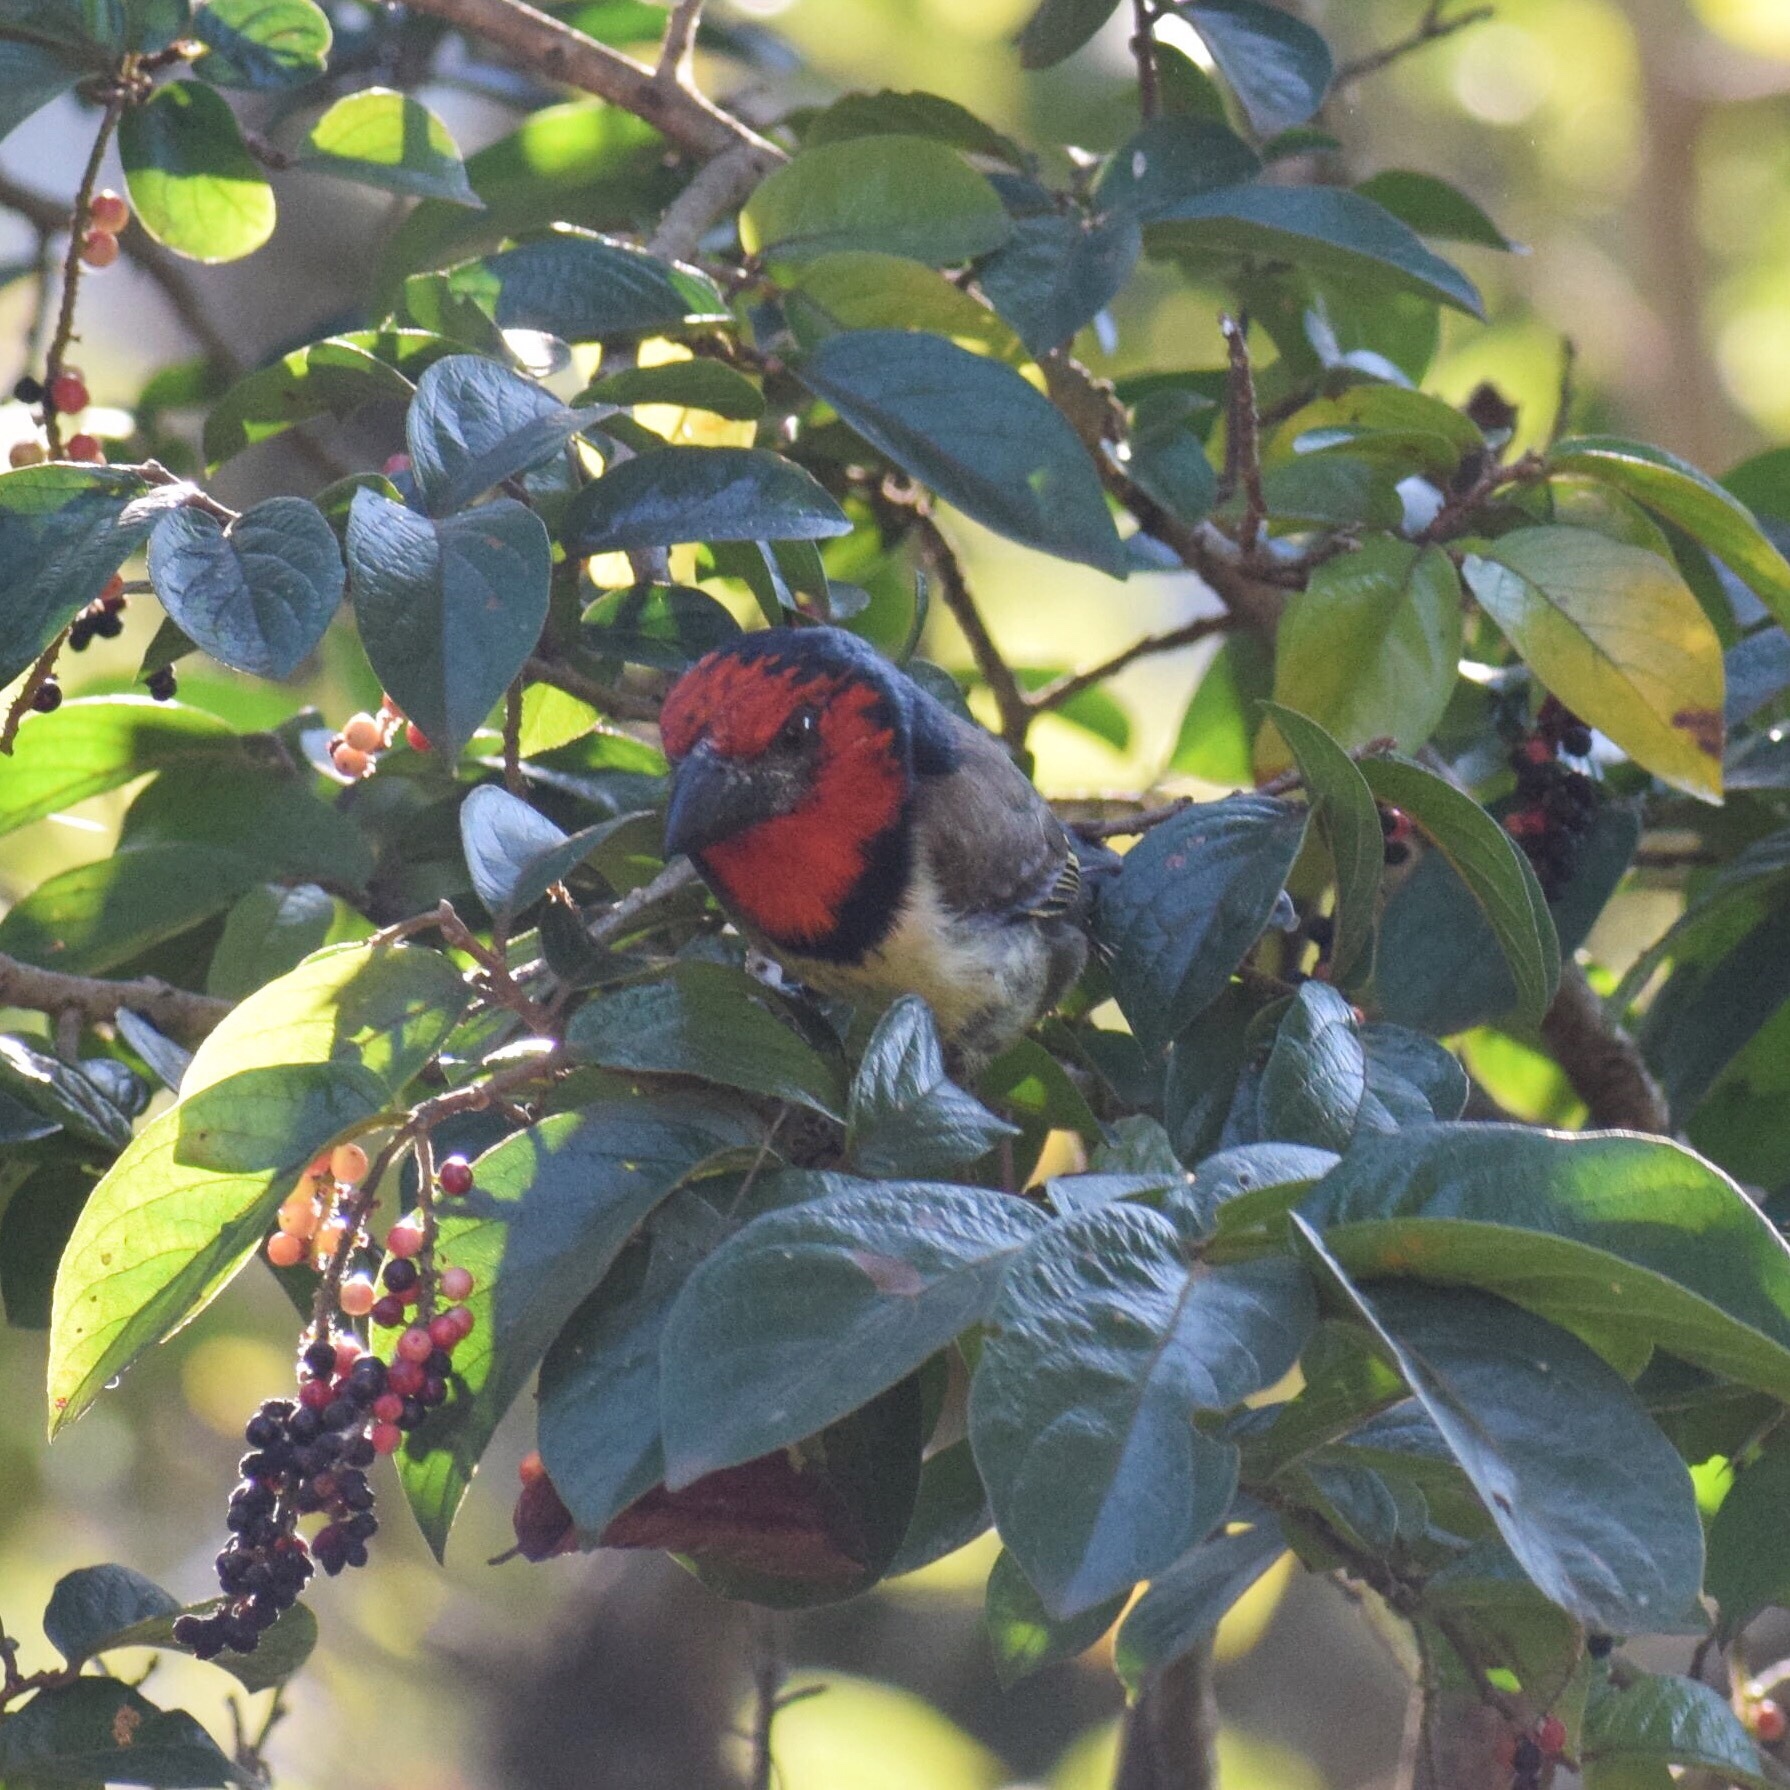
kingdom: Animalia
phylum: Chordata
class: Aves
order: Piciformes
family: Lybiidae
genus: Lybius
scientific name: Lybius torquatus
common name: Black-collared barbet
